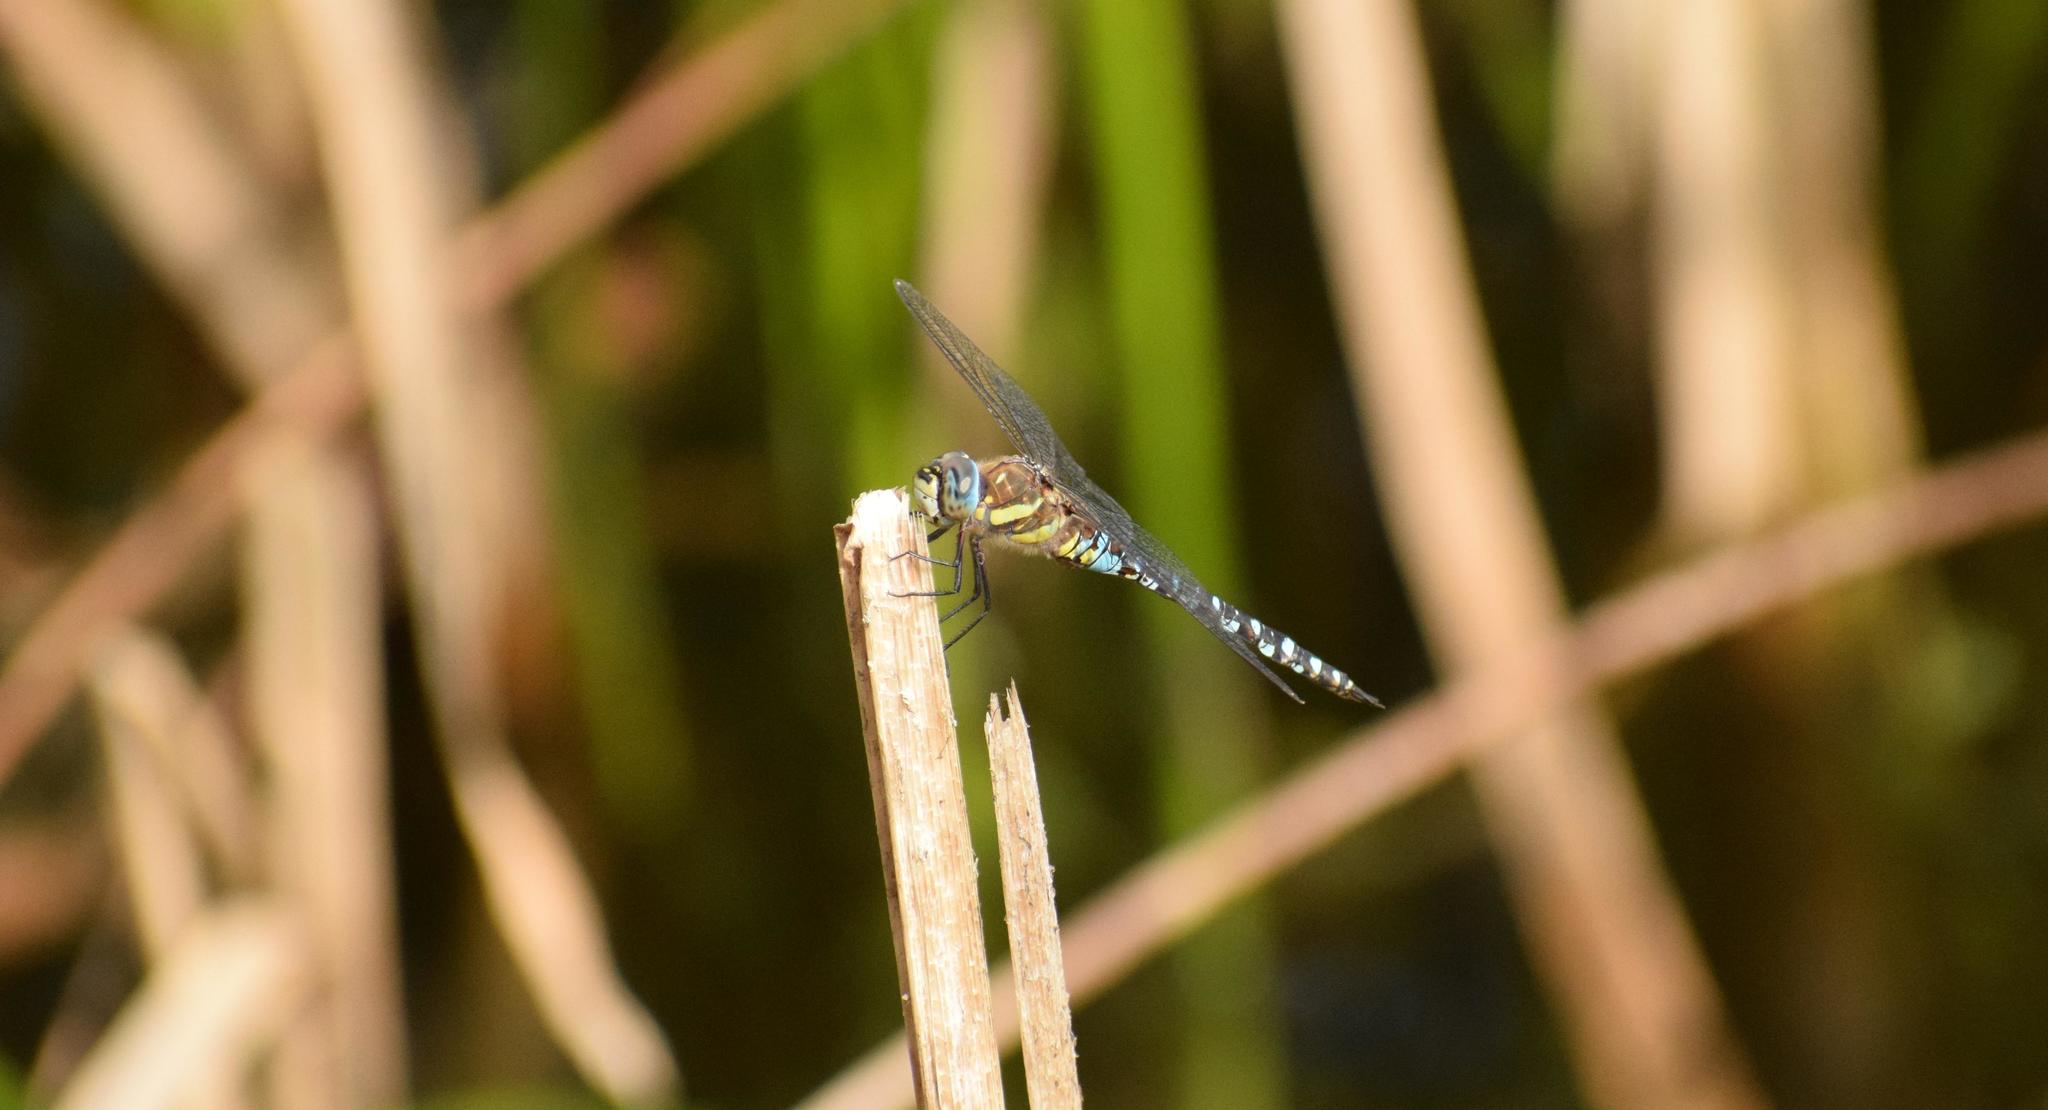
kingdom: Animalia
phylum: Arthropoda
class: Insecta
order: Odonata
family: Aeshnidae
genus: Aeshna
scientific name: Aeshna mixta
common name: Migrant hawker
